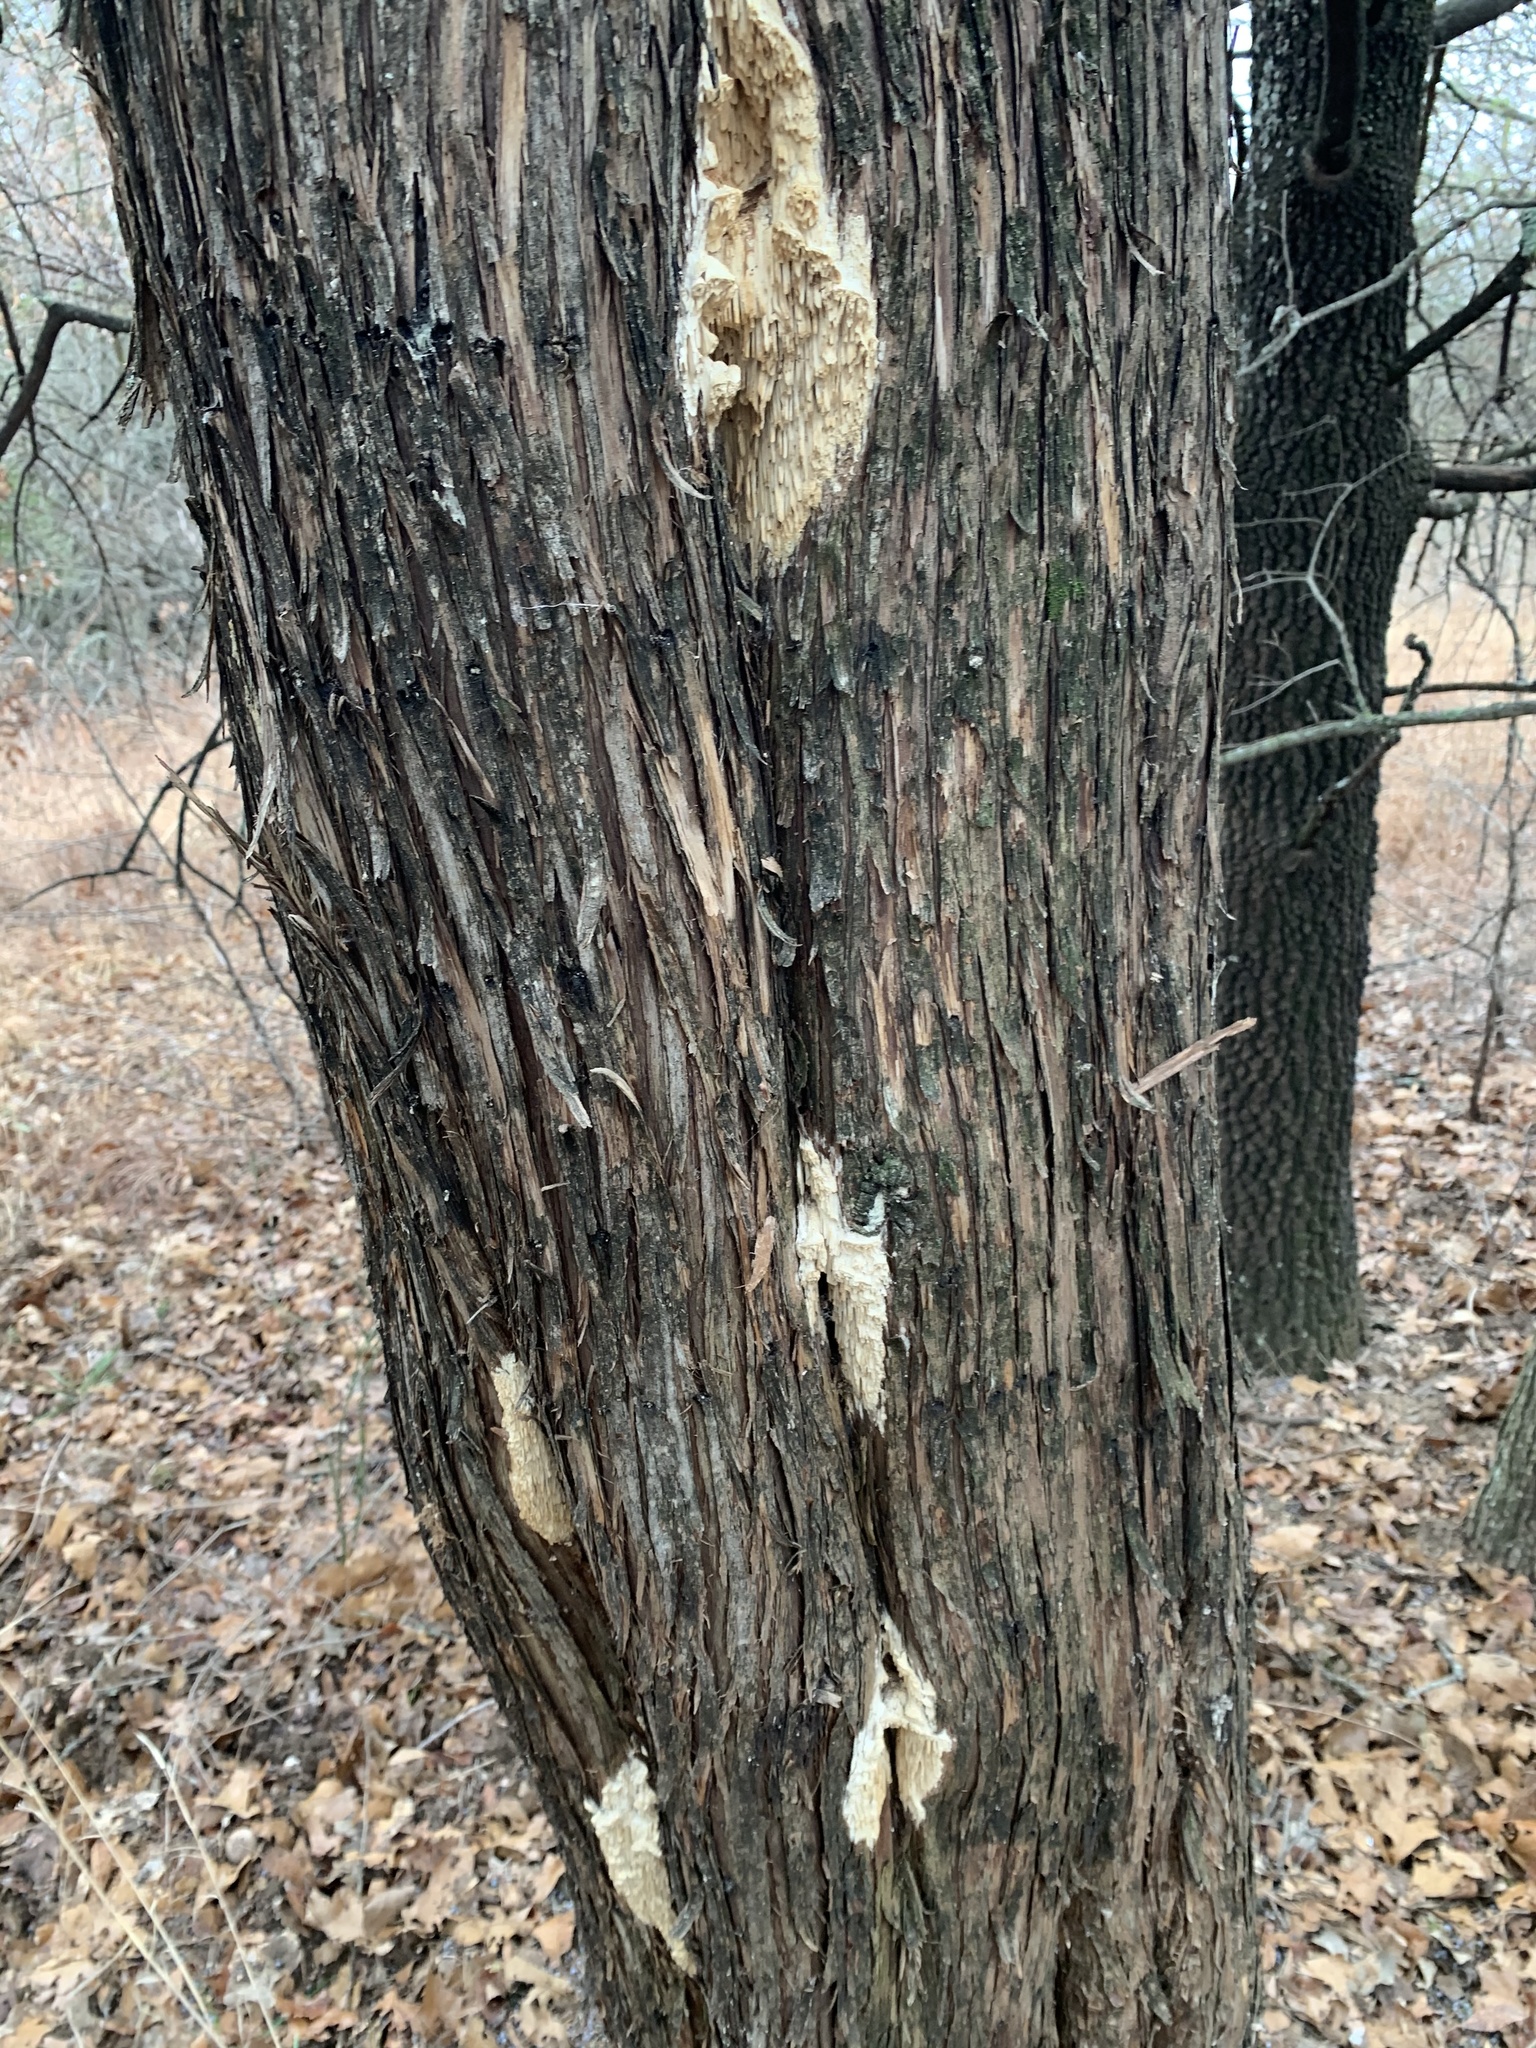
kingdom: Fungi
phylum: Basidiomycota
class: Agaricomycetes
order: Polyporales
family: Fomitopsidaceae
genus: Fomitopsis
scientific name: Fomitopsis
